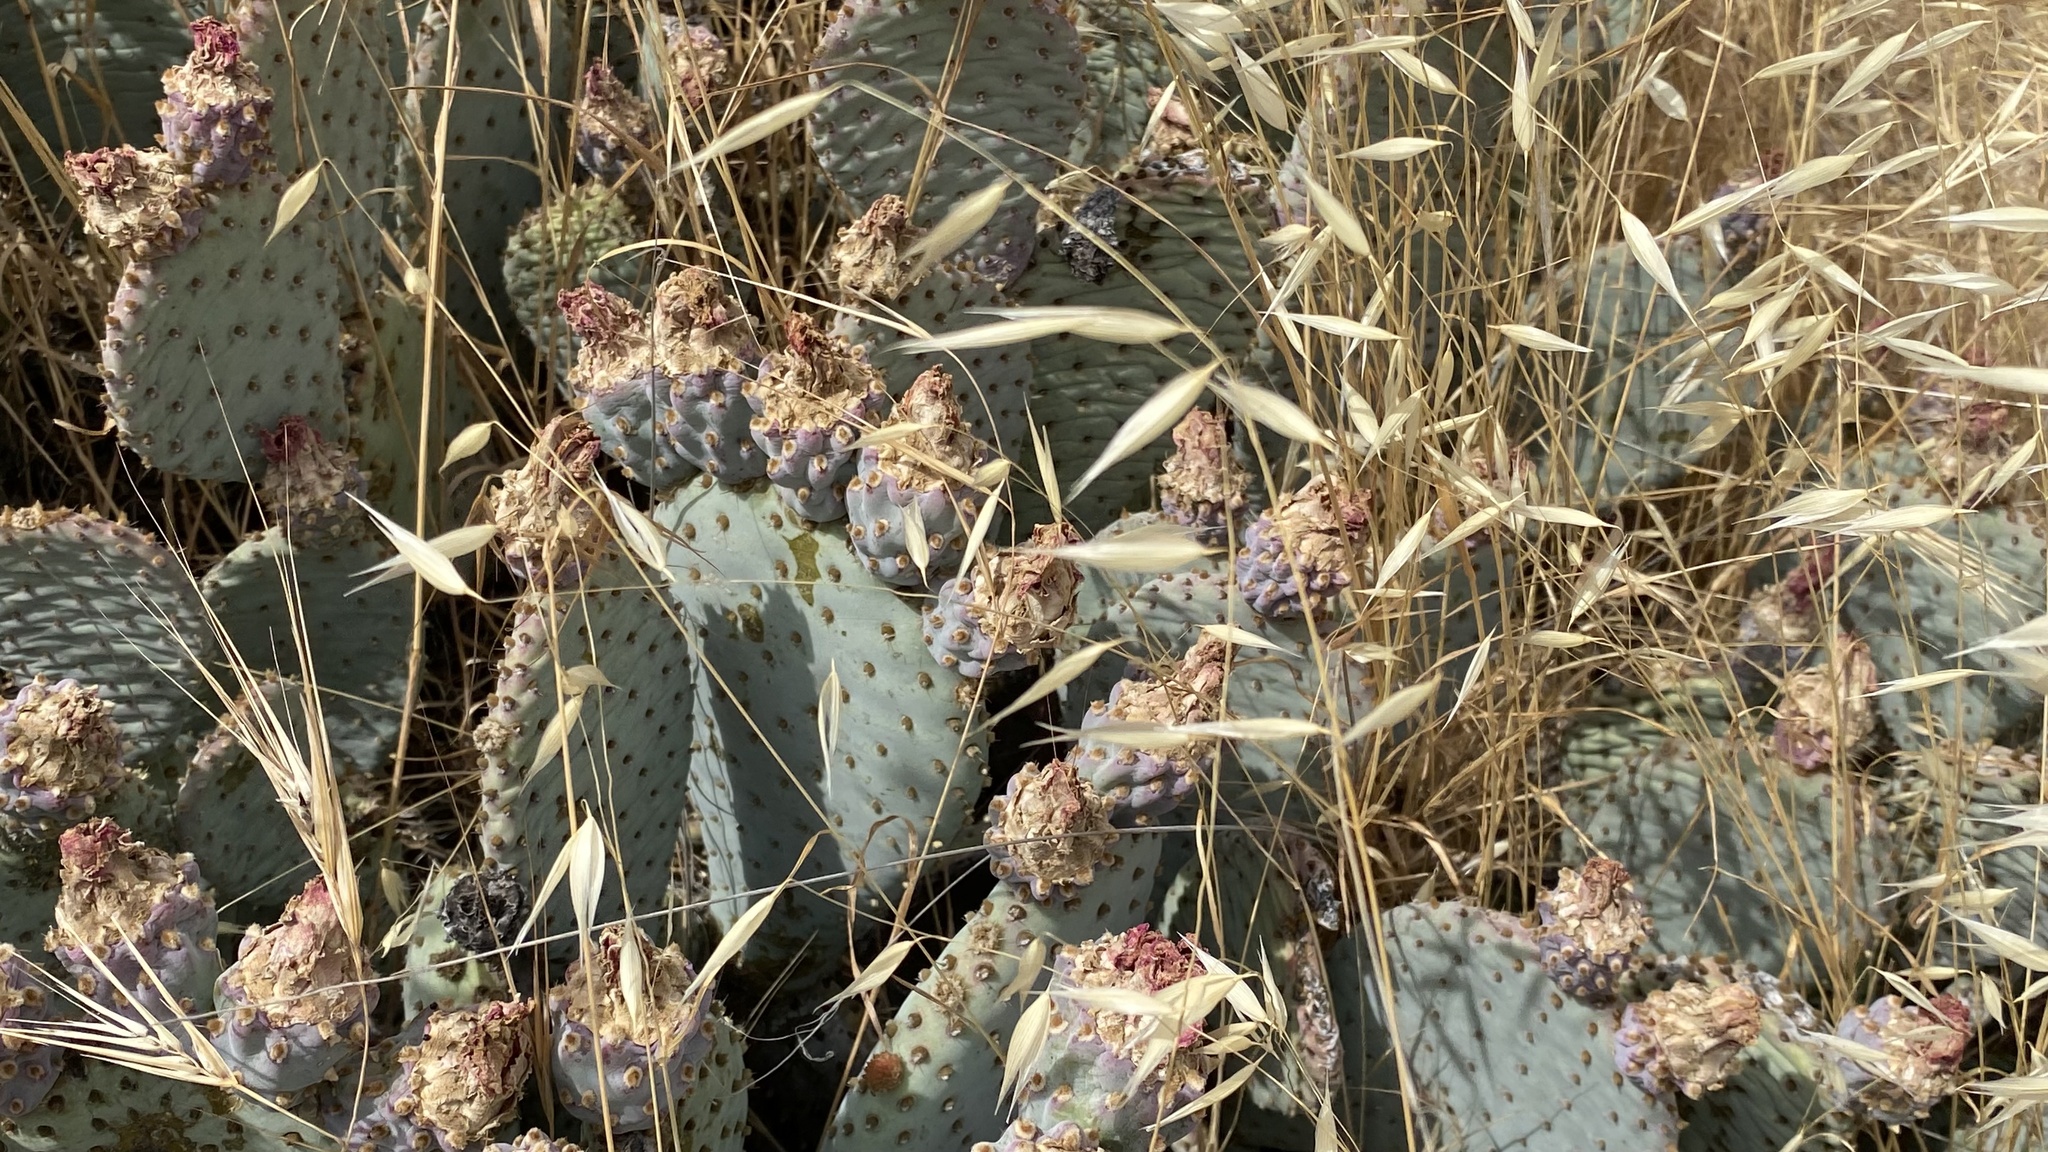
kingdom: Plantae
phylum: Tracheophyta
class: Magnoliopsida
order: Caryophyllales
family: Cactaceae
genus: Opuntia
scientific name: Opuntia basilaris
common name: Beavertail prickly-pear
